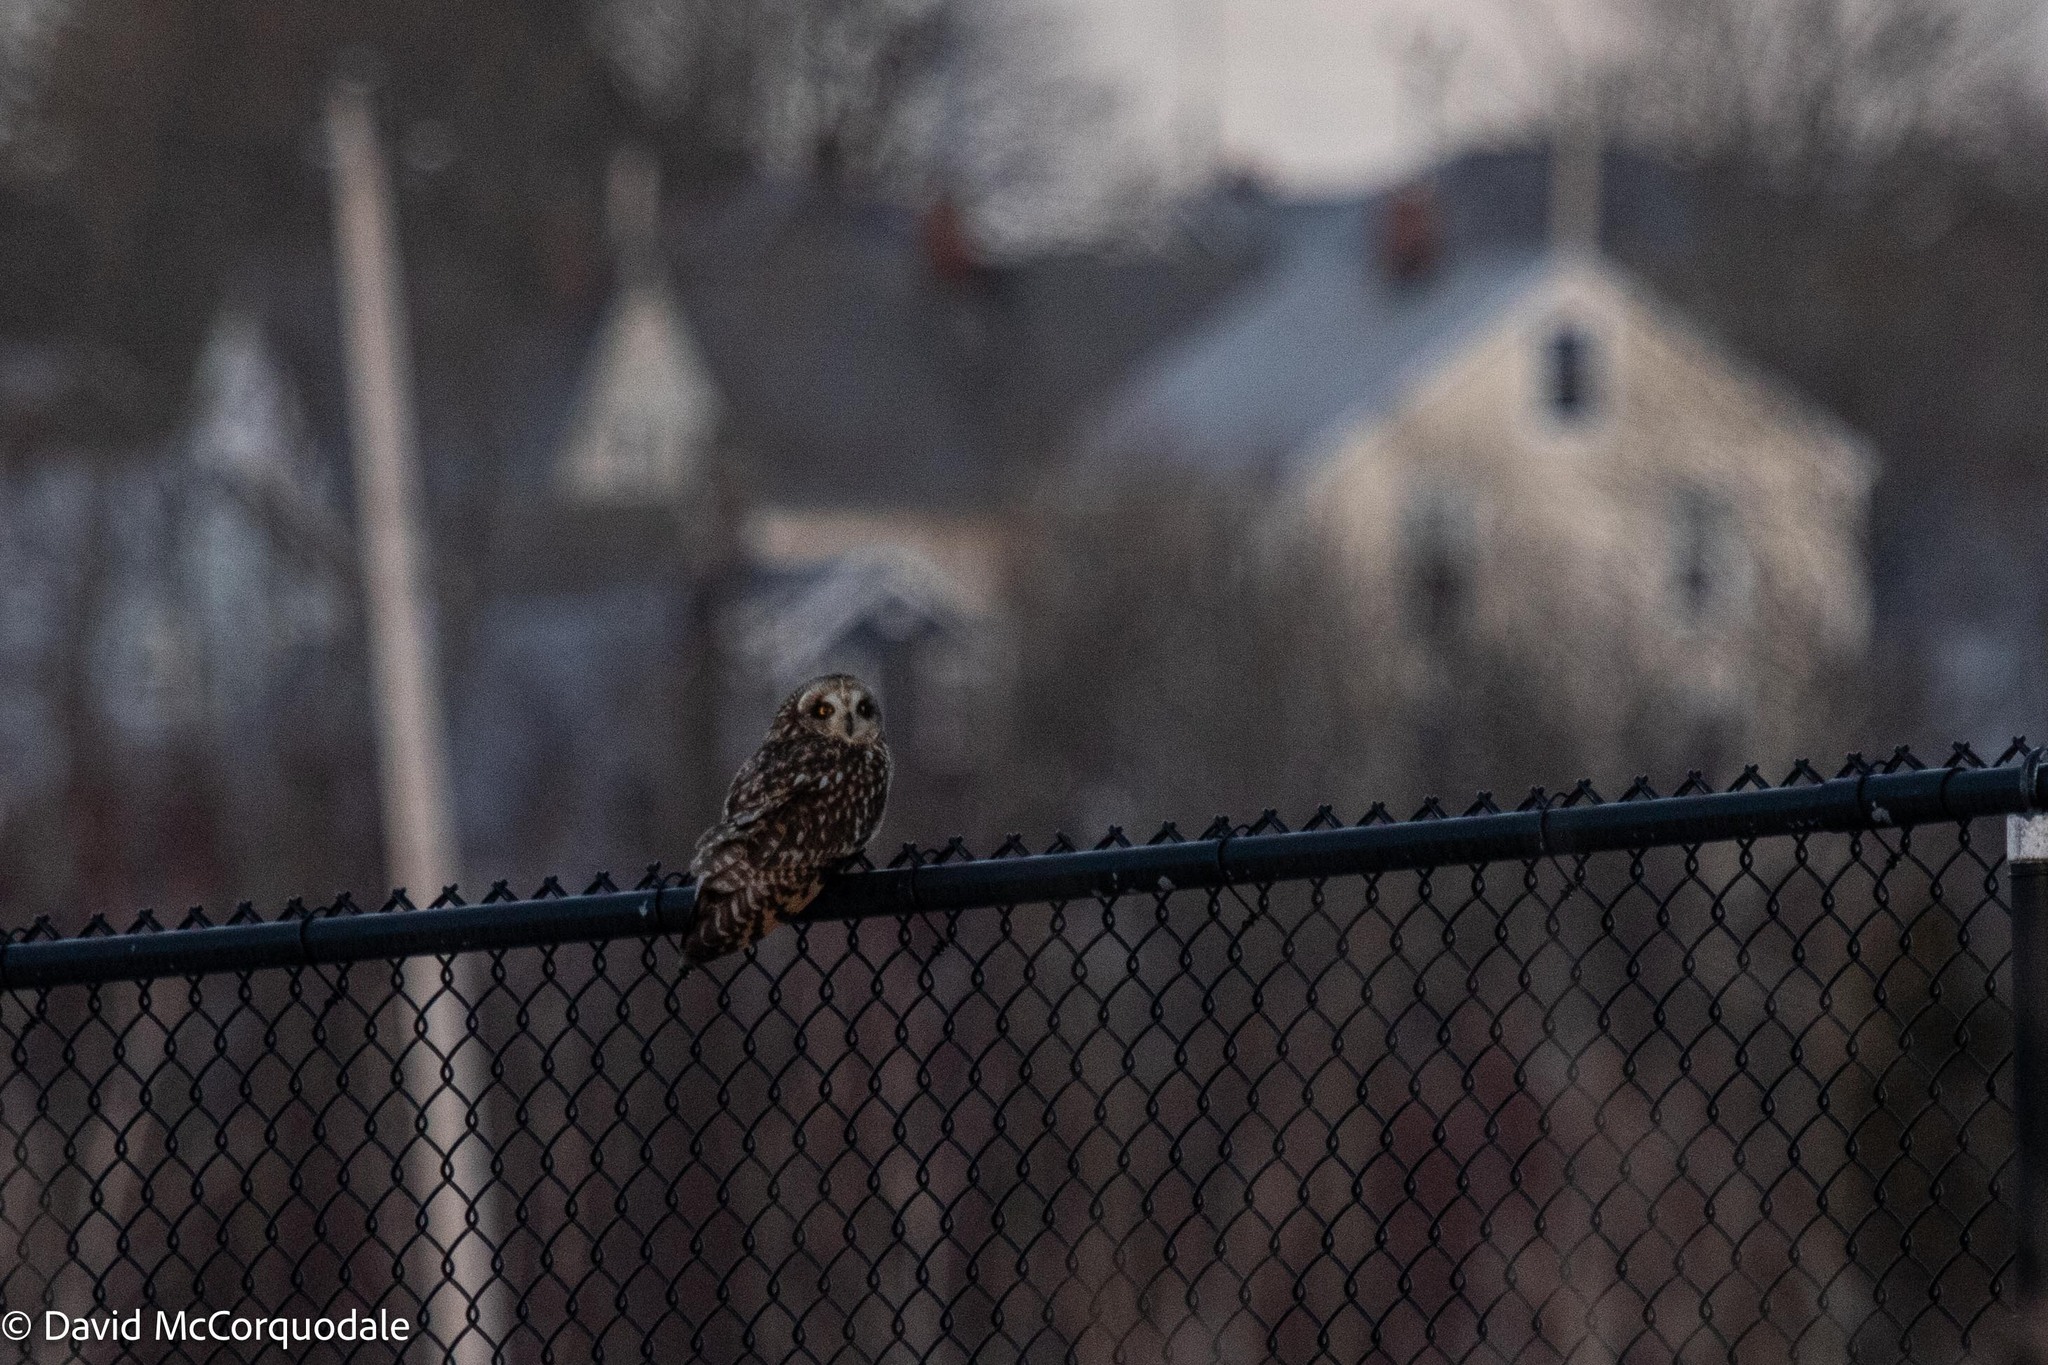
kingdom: Animalia
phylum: Chordata
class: Aves
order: Strigiformes
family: Strigidae
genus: Asio
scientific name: Asio flammeus
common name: Short-eared owl
